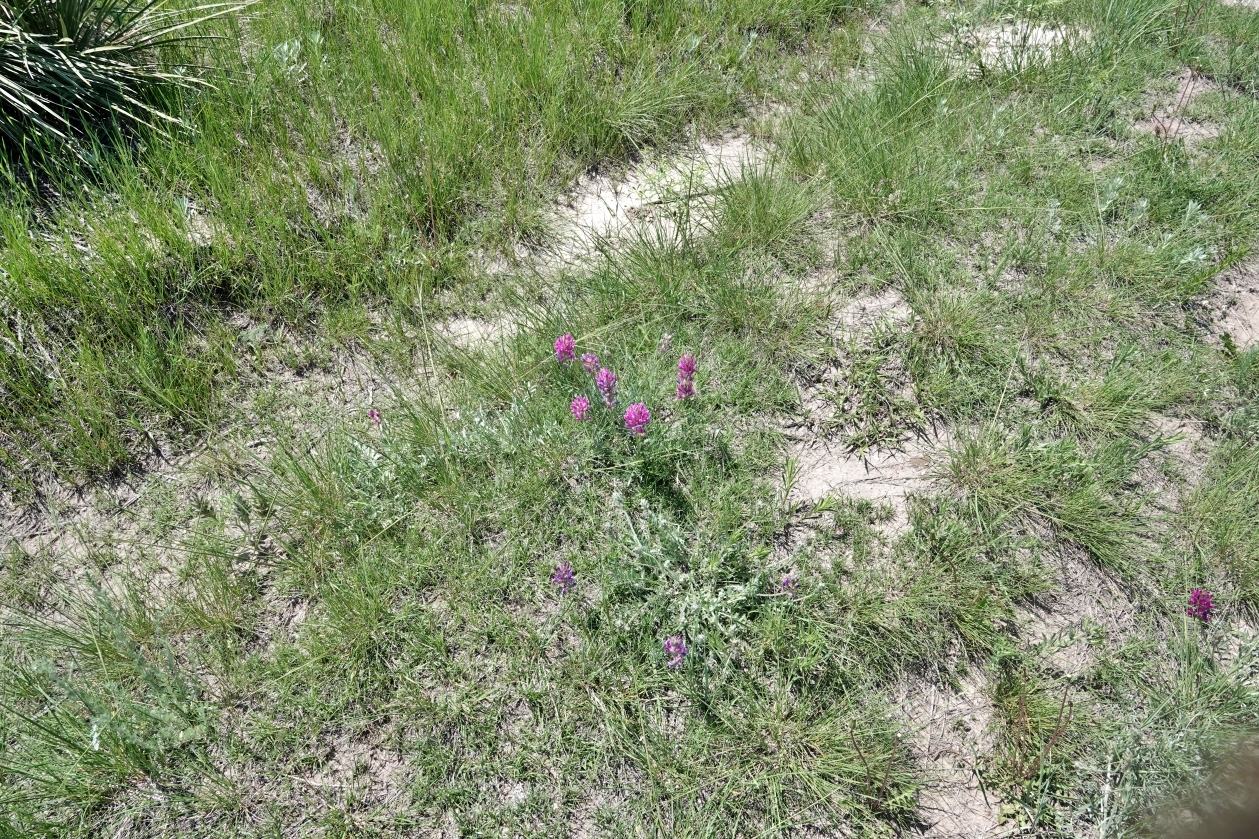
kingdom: Plantae
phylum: Tracheophyta
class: Magnoliopsida
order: Fabales
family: Fabaceae
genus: Oxytropis
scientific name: Oxytropis lambertii
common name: Purple locoweed
